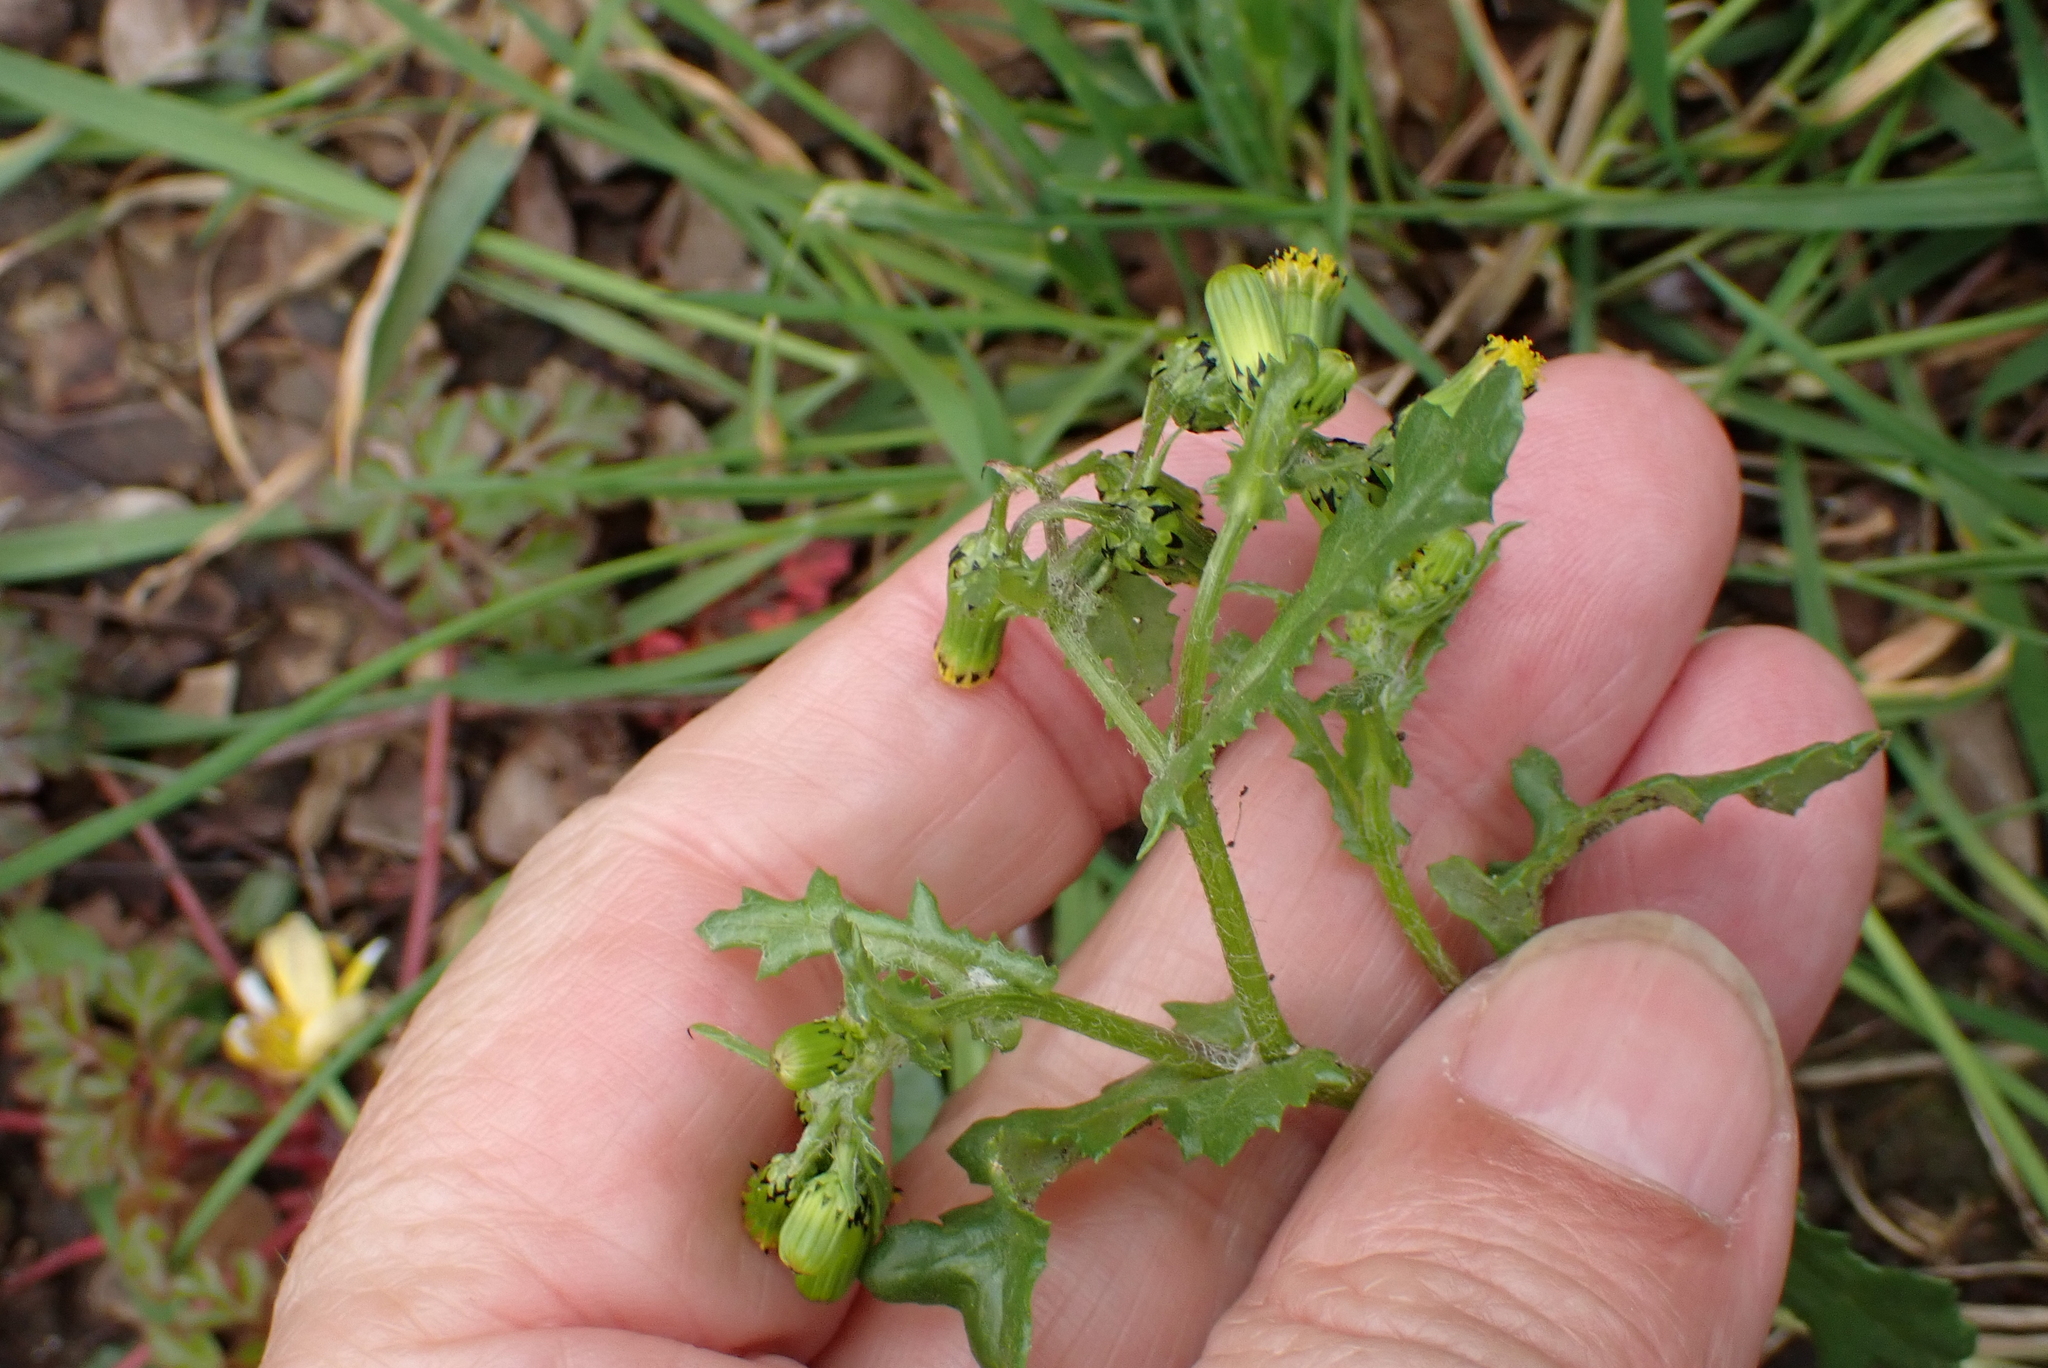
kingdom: Plantae
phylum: Tracheophyta
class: Magnoliopsida
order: Asterales
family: Asteraceae
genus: Senecio
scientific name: Senecio vulgaris
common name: Old-man-in-the-spring
